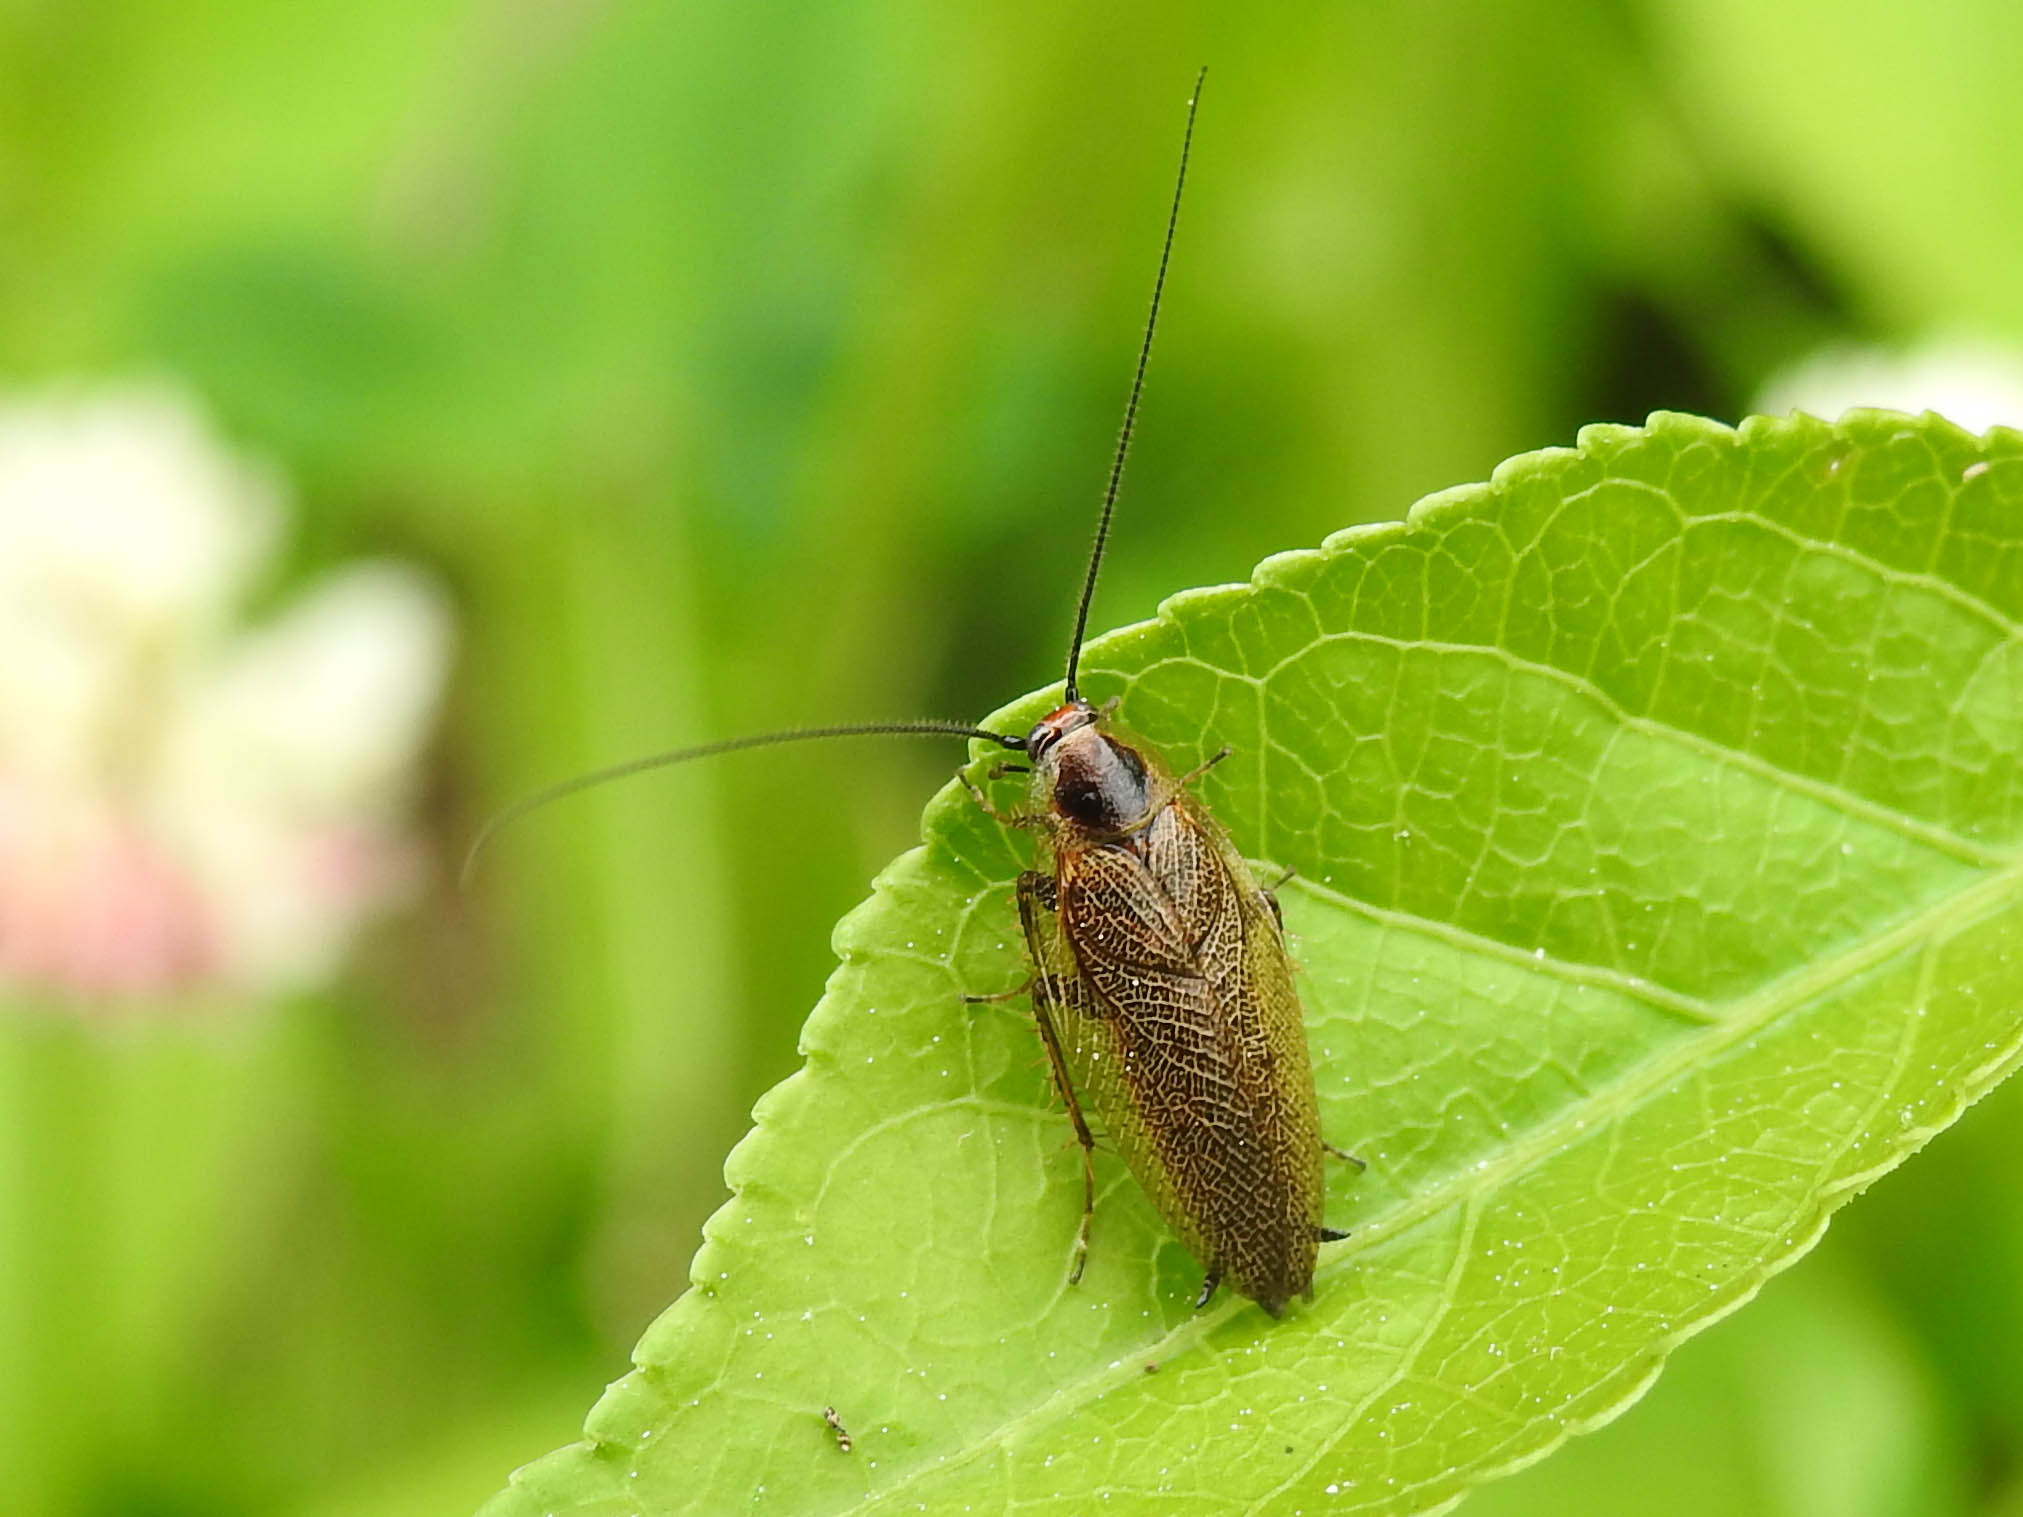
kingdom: Animalia
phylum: Arthropoda
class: Insecta
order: Blattodea
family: Ectobiidae
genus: Ectobius
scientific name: Ectobius lapponicus
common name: Dusky cockroach
